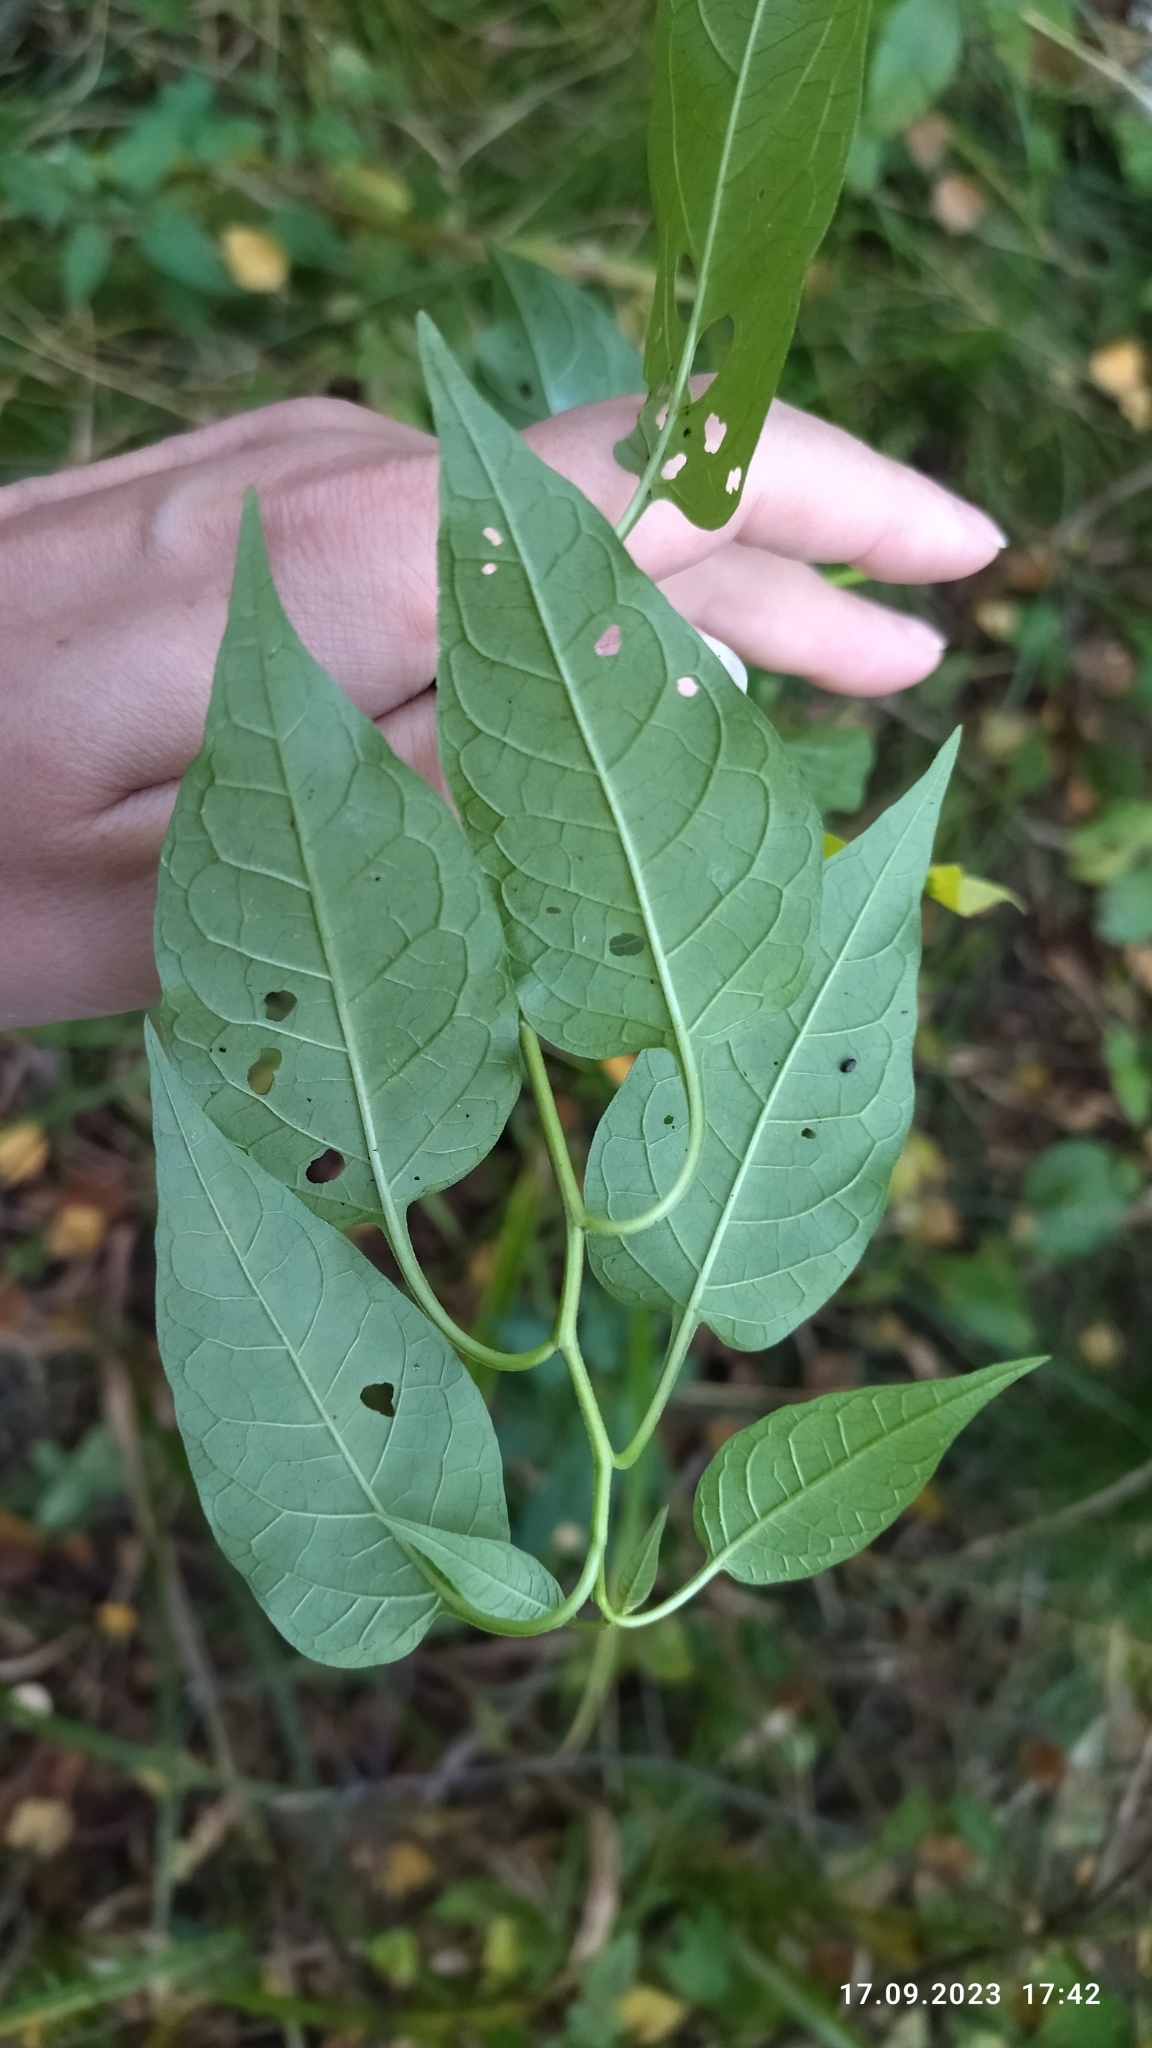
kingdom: Plantae
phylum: Tracheophyta
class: Magnoliopsida
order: Solanales
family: Solanaceae
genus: Solanum
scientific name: Solanum dulcamara
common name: Climbing nightshade
